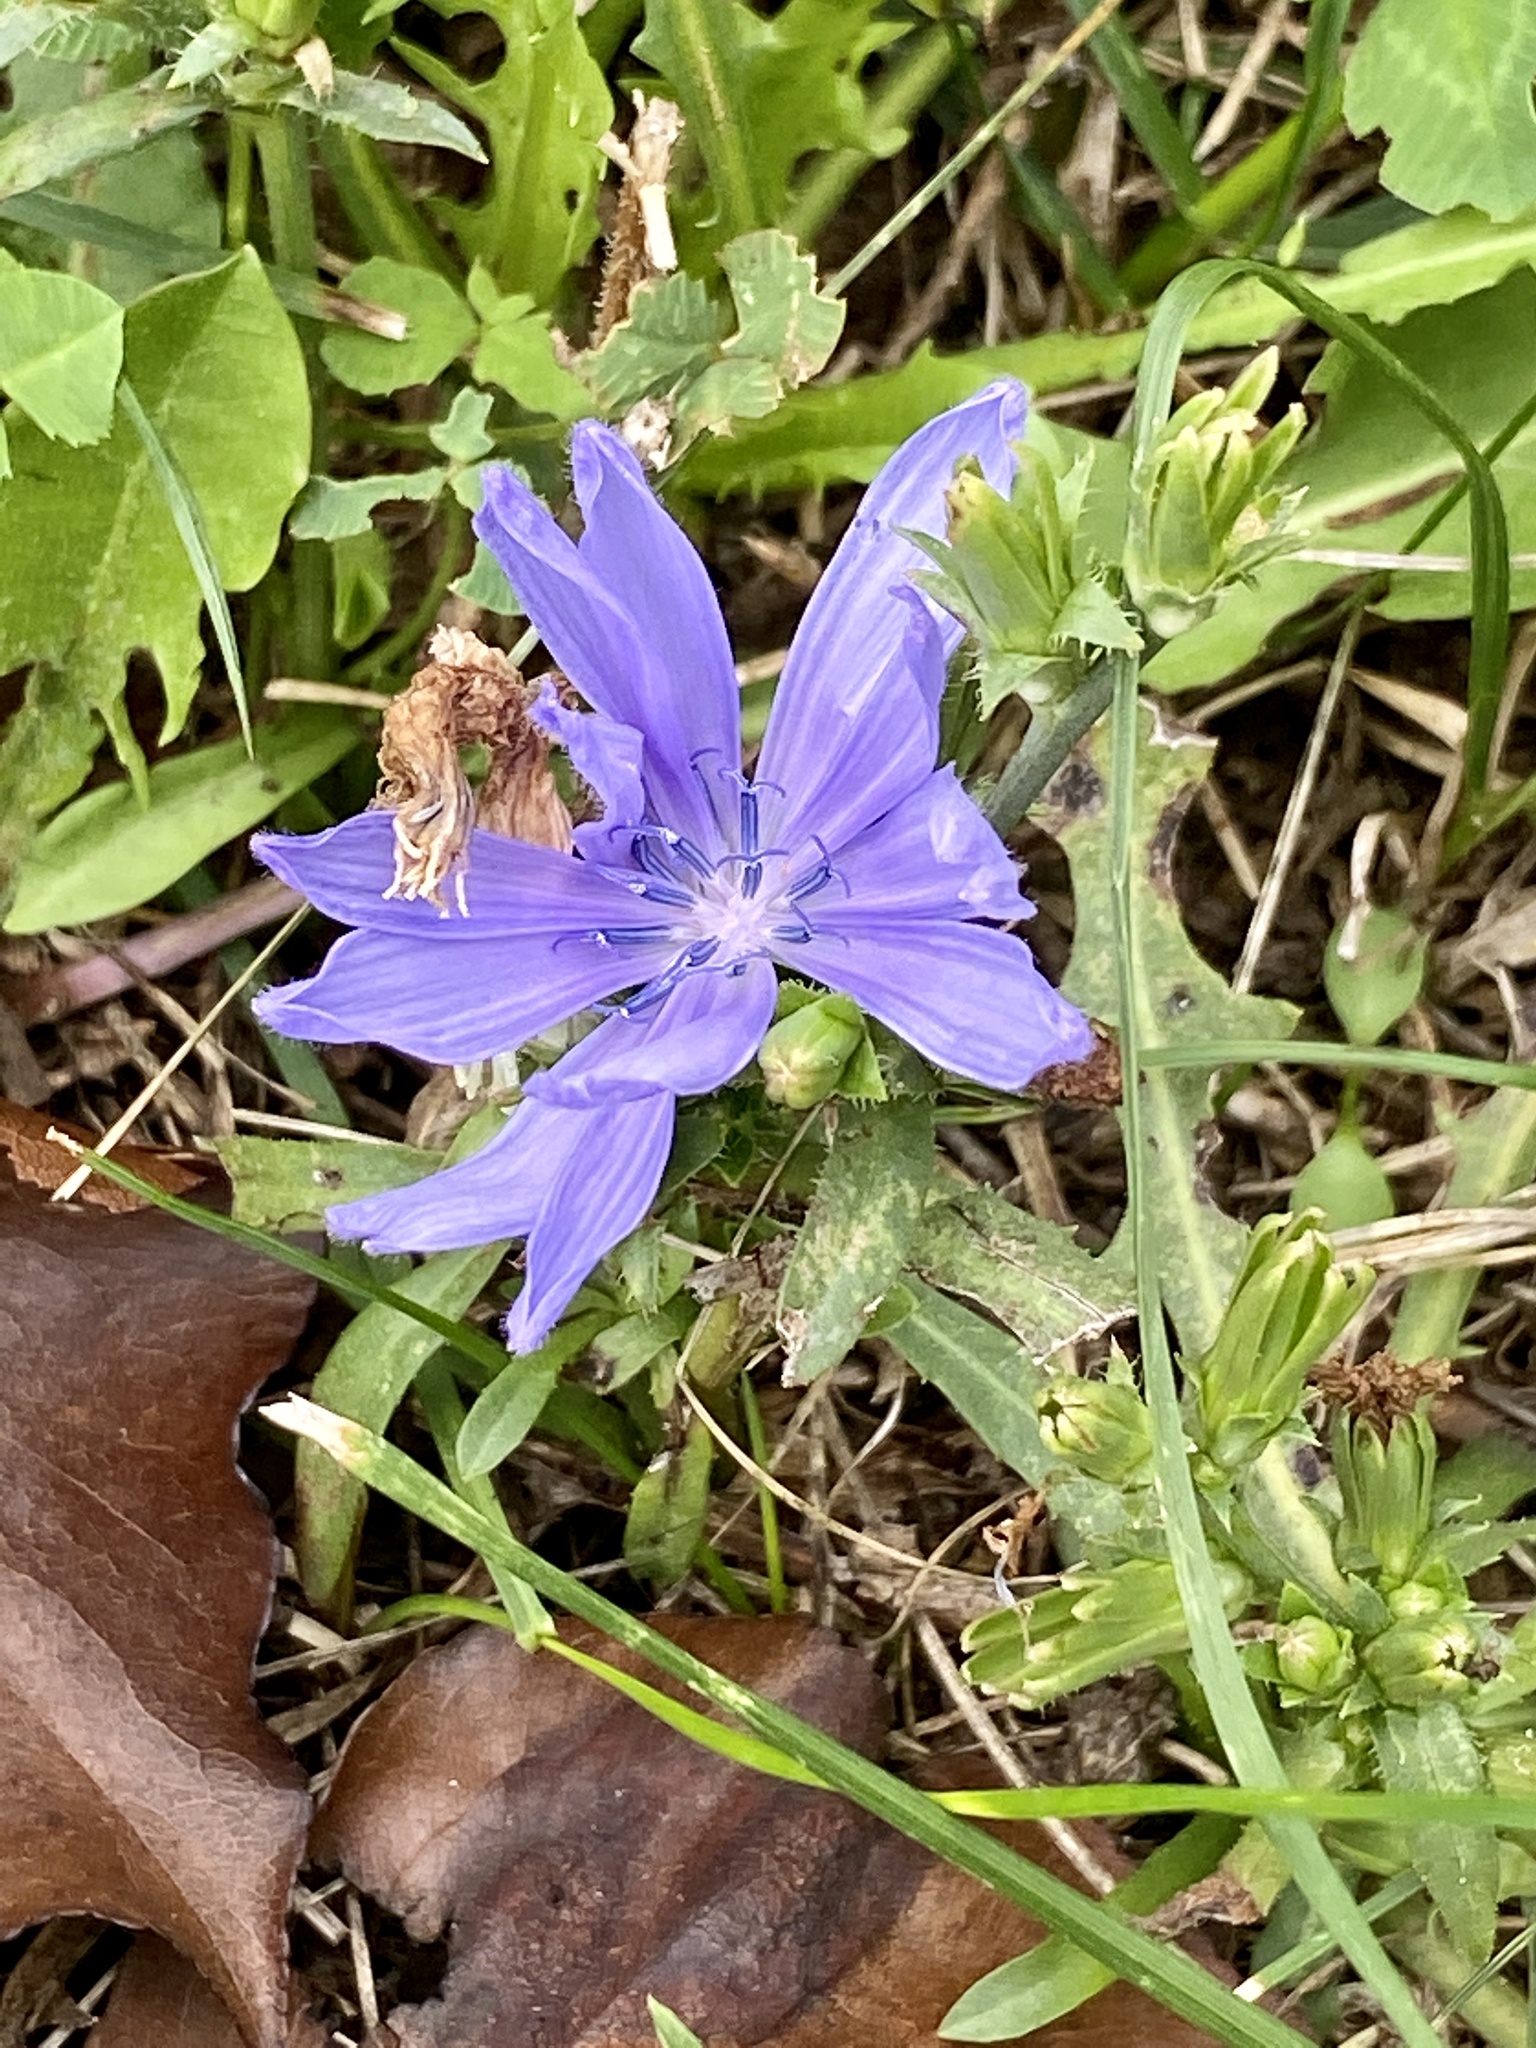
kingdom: Plantae
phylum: Tracheophyta
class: Magnoliopsida
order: Asterales
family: Asteraceae
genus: Cichorium
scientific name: Cichorium intybus
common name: Chicory
